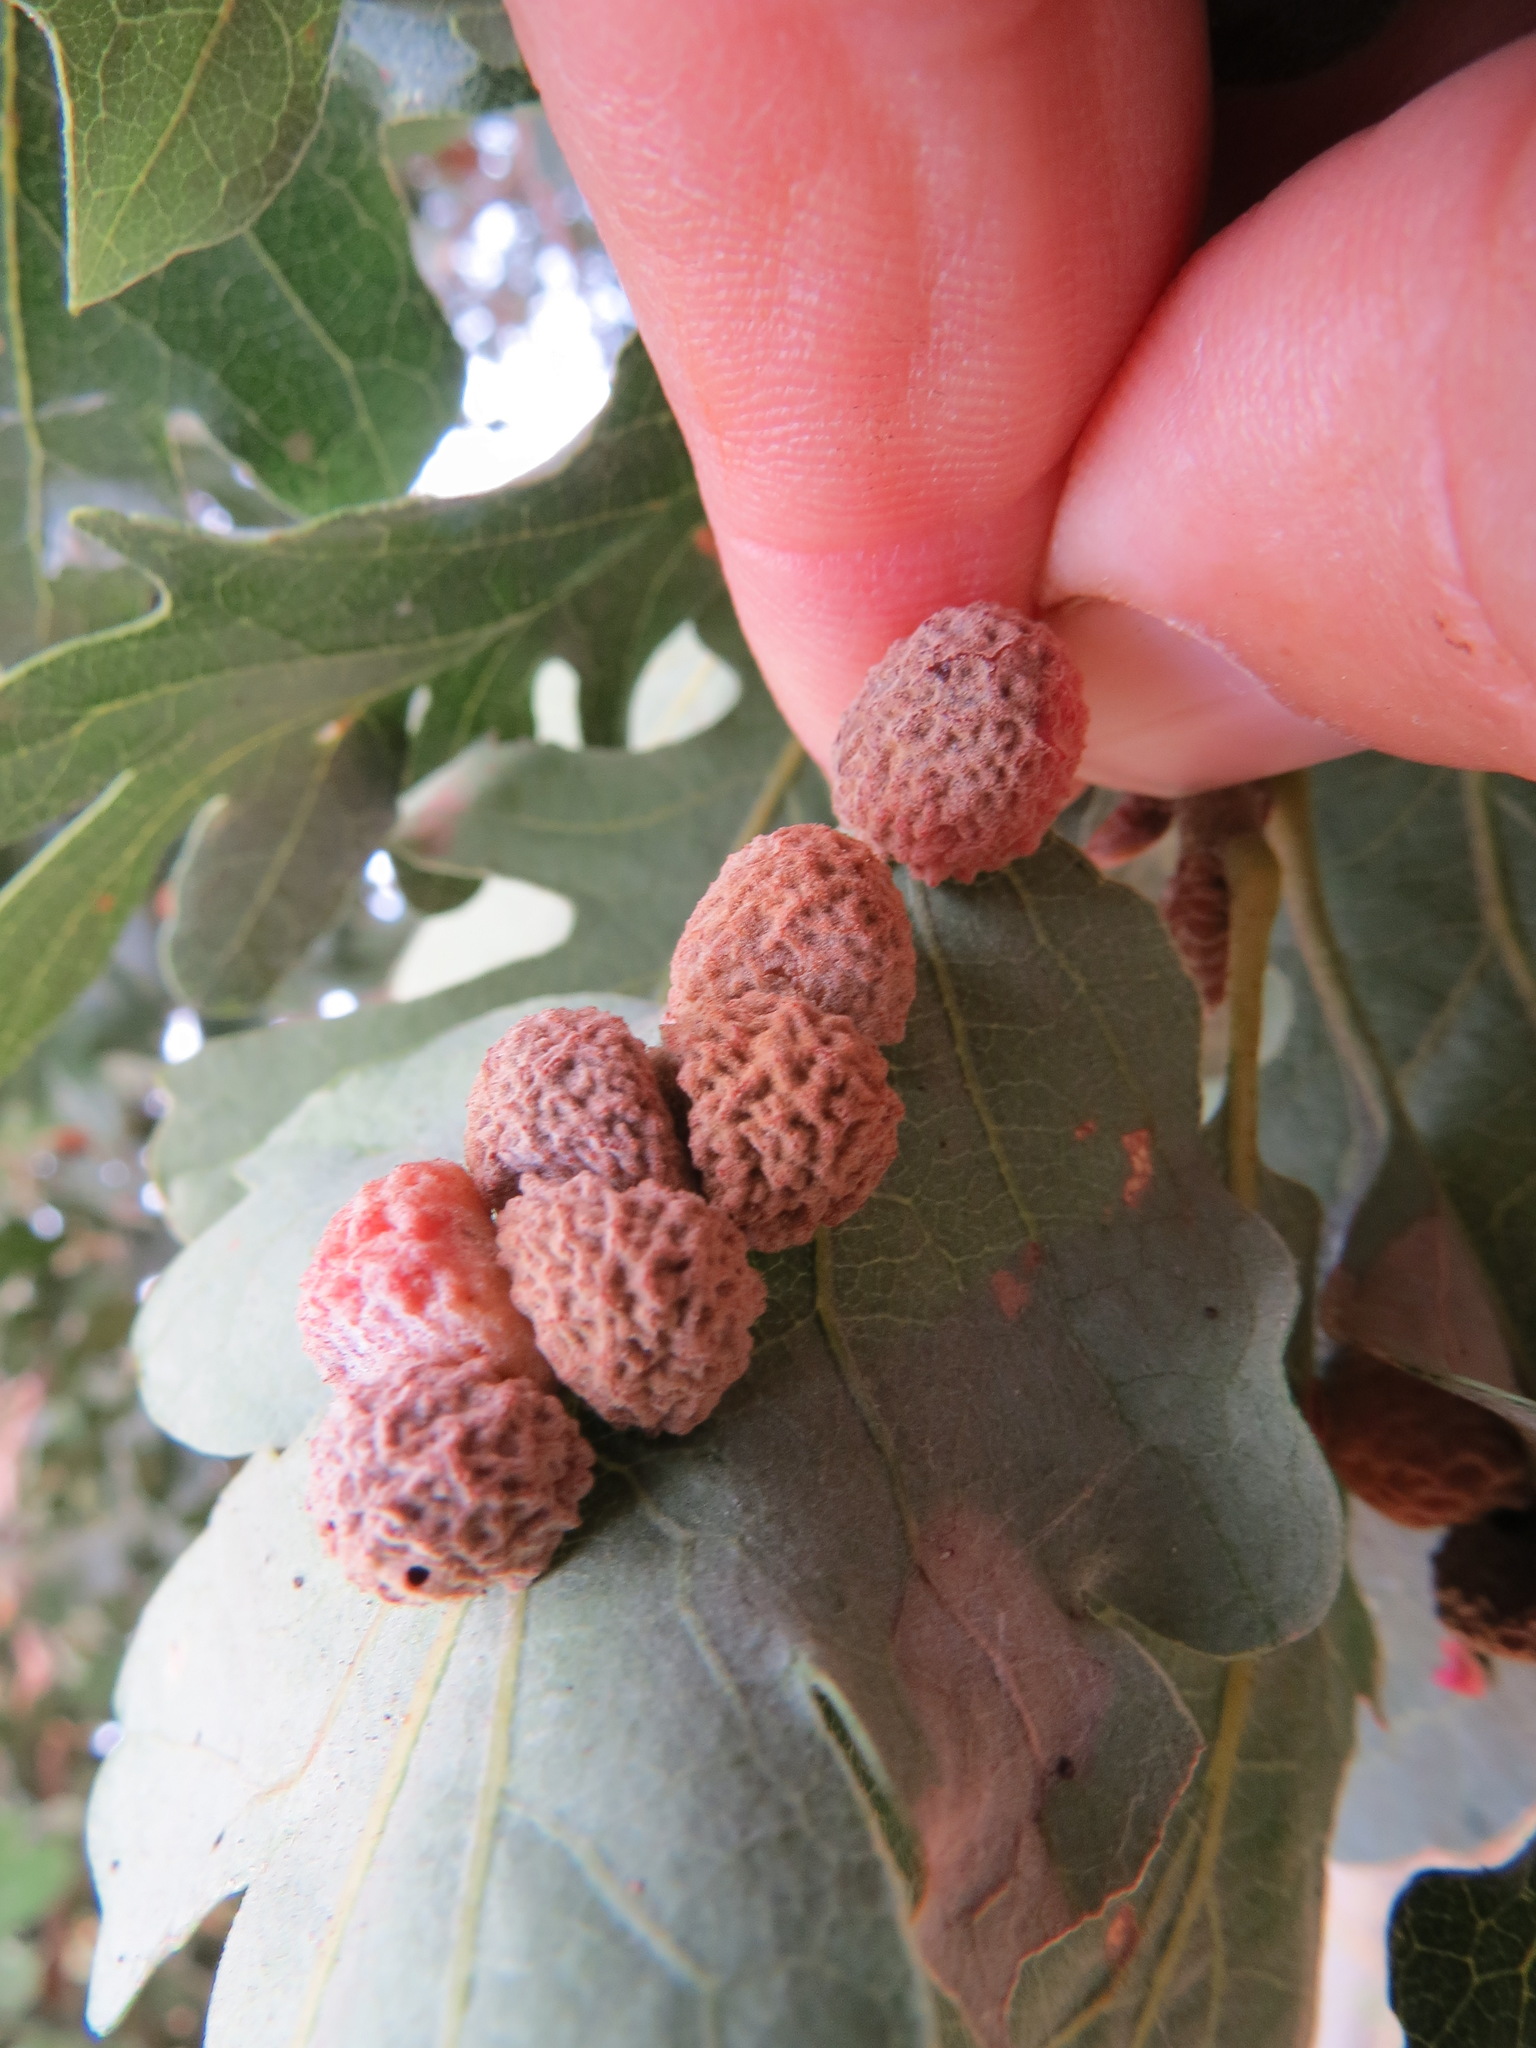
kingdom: Animalia
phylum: Arthropoda
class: Insecta
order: Hymenoptera
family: Cynipidae
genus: Cynips
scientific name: Cynips conspicua
